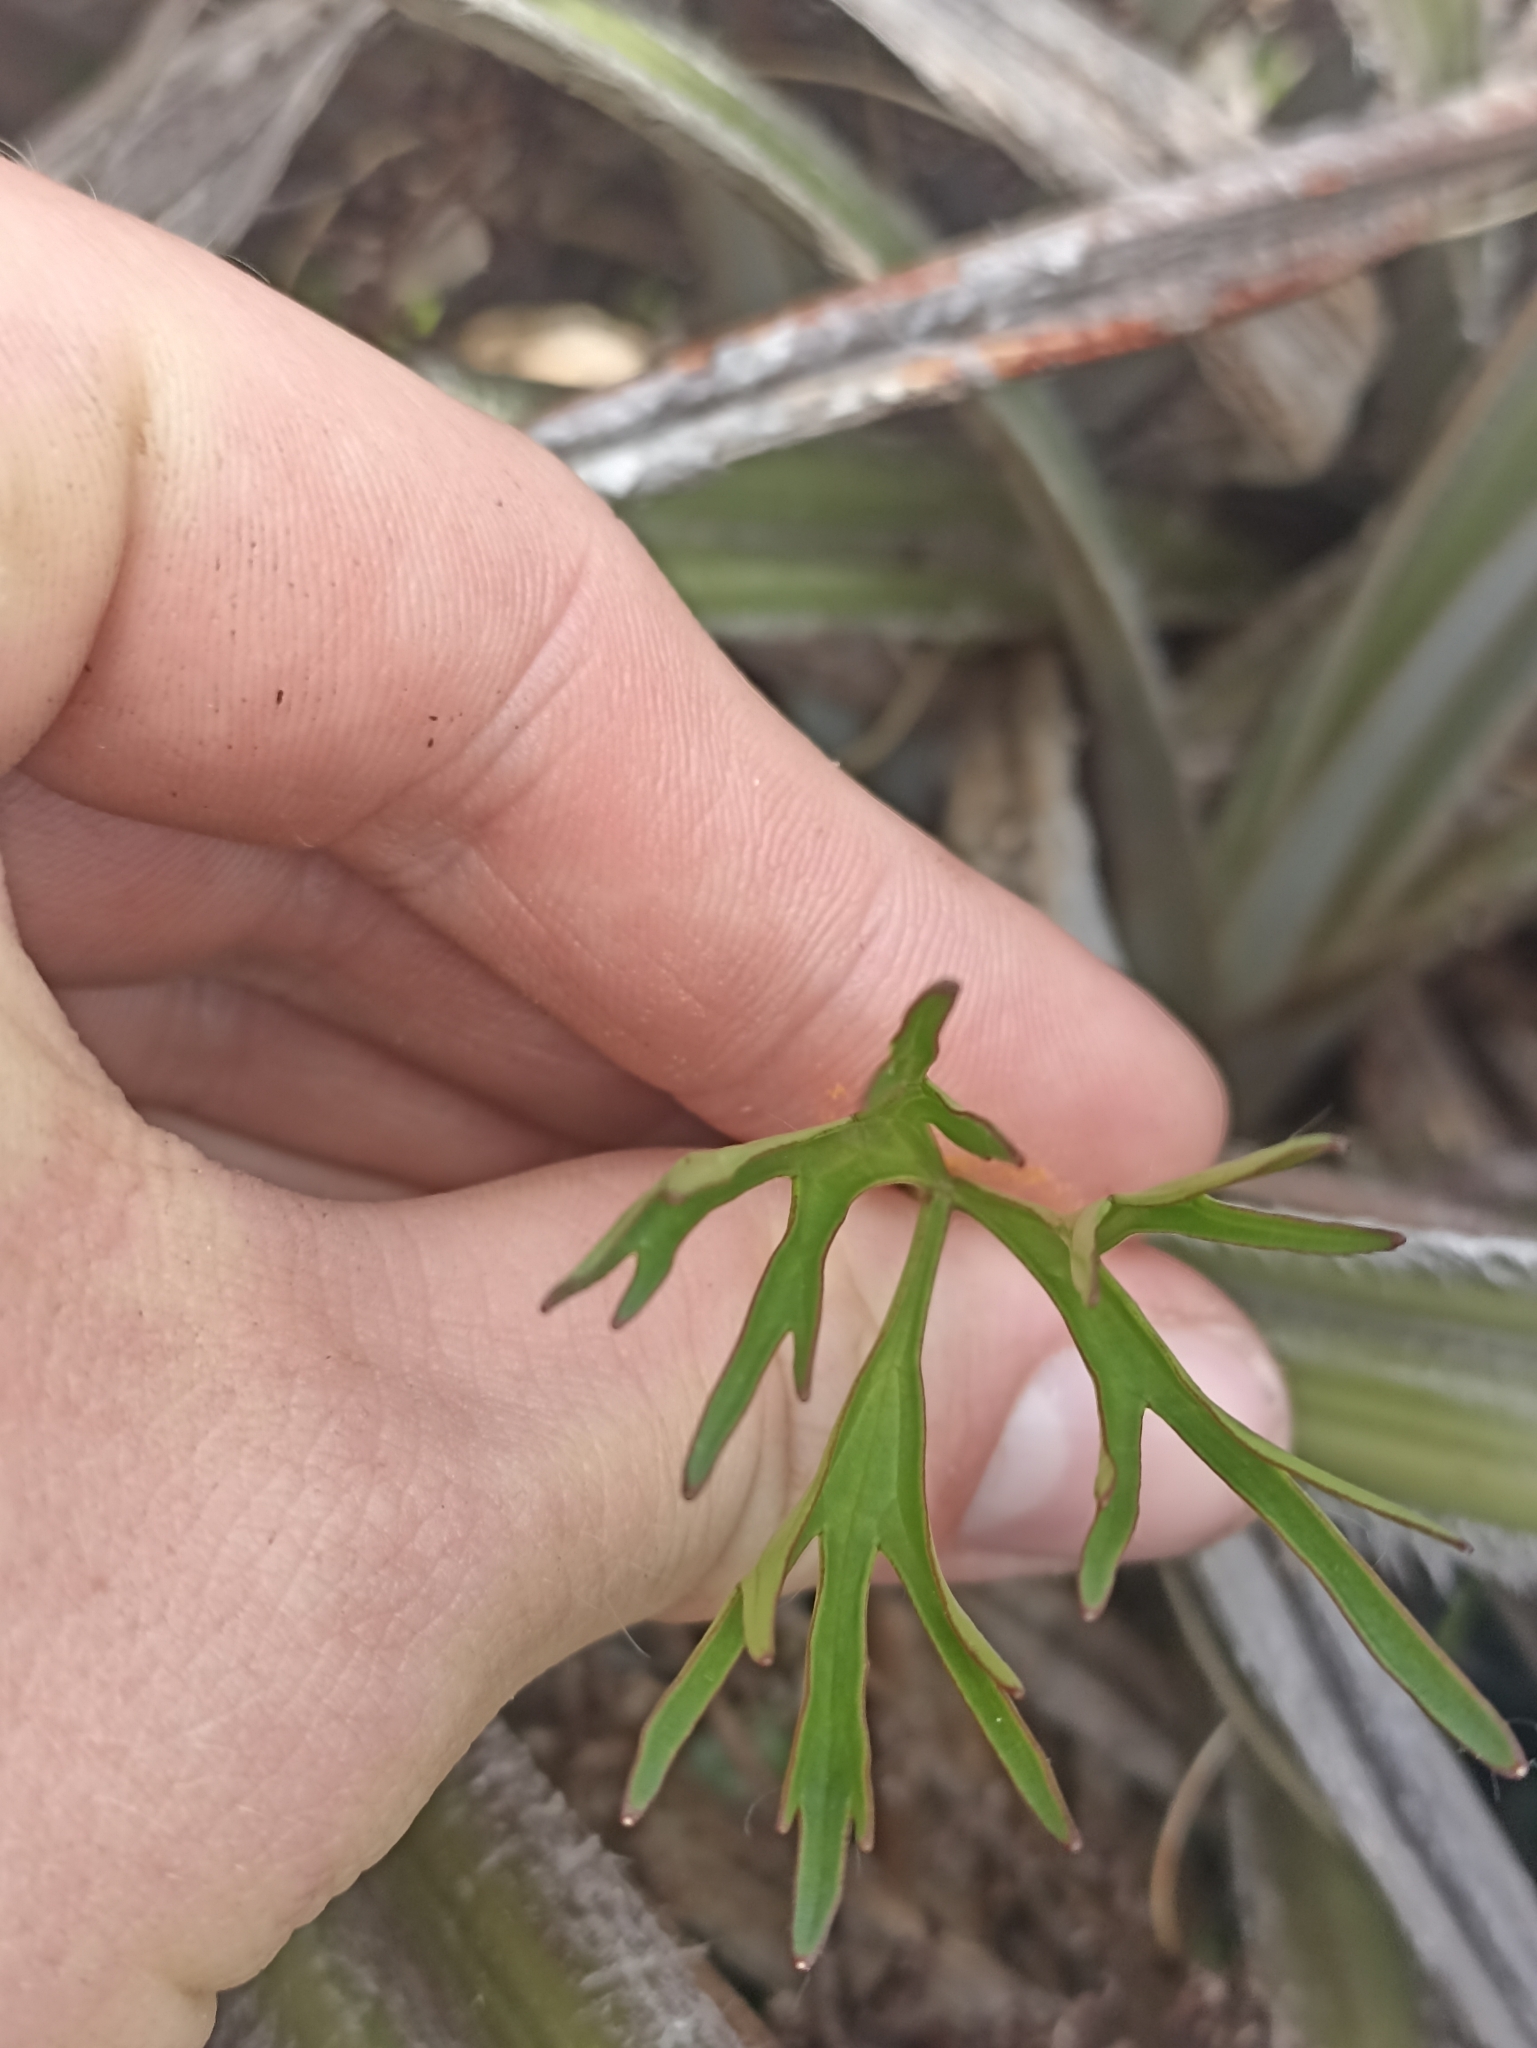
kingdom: Plantae
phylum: Tracheophyta
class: Magnoliopsida
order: Ranunculales
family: Ranunculaceae
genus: Ranunculus
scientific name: Ranunculus verticillatus
